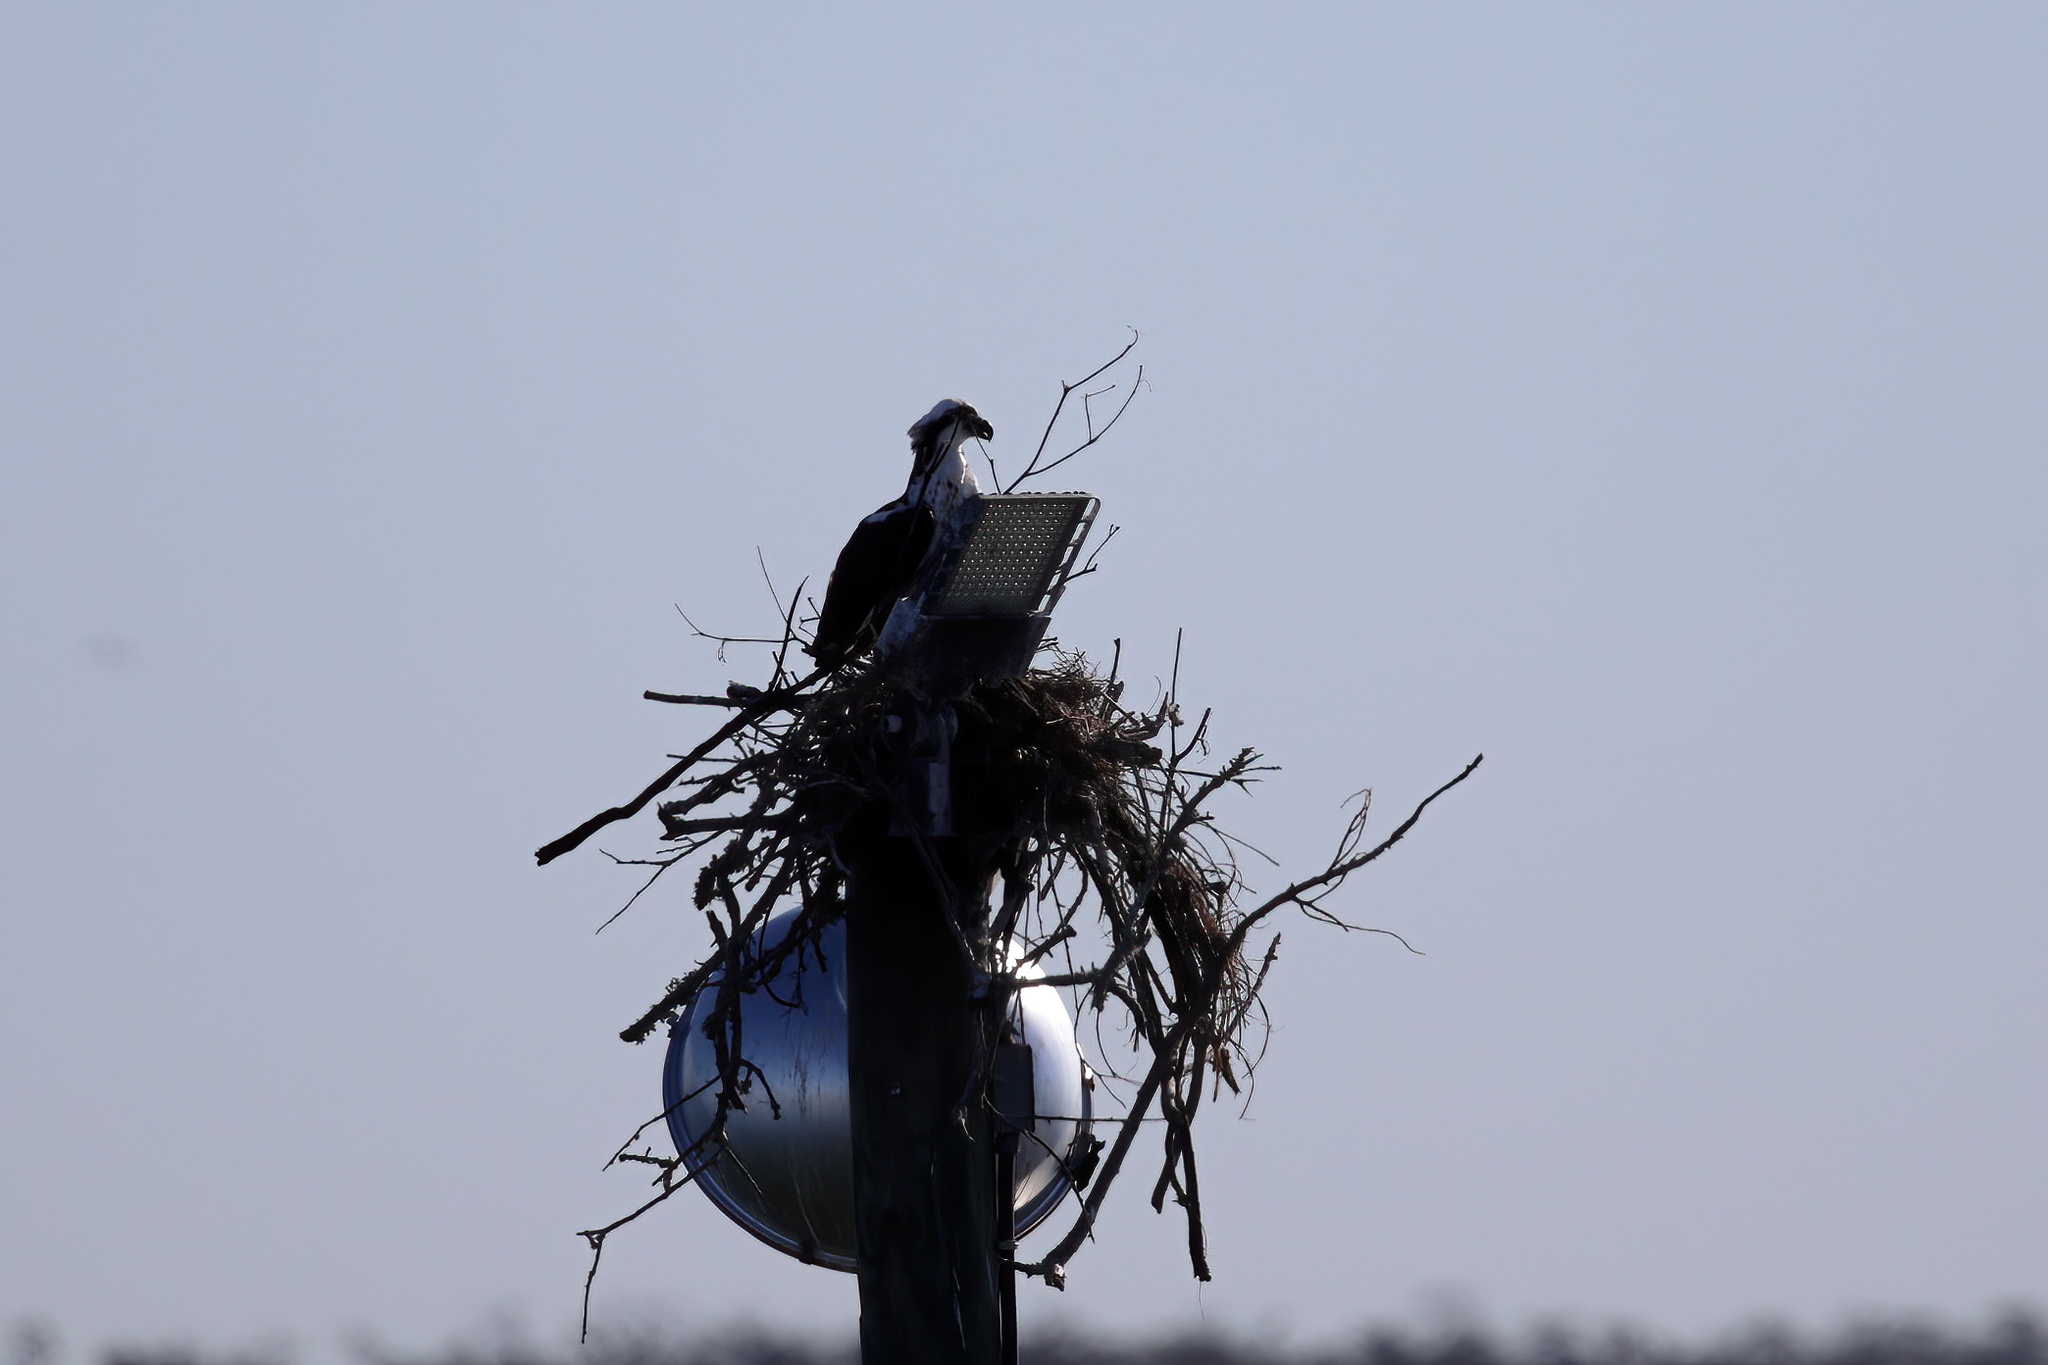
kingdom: Animalia
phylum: Chordata
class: Aves
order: Accipitriformes
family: Pandionidae
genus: Pandion
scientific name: Pandion haliaetus
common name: Osprey
